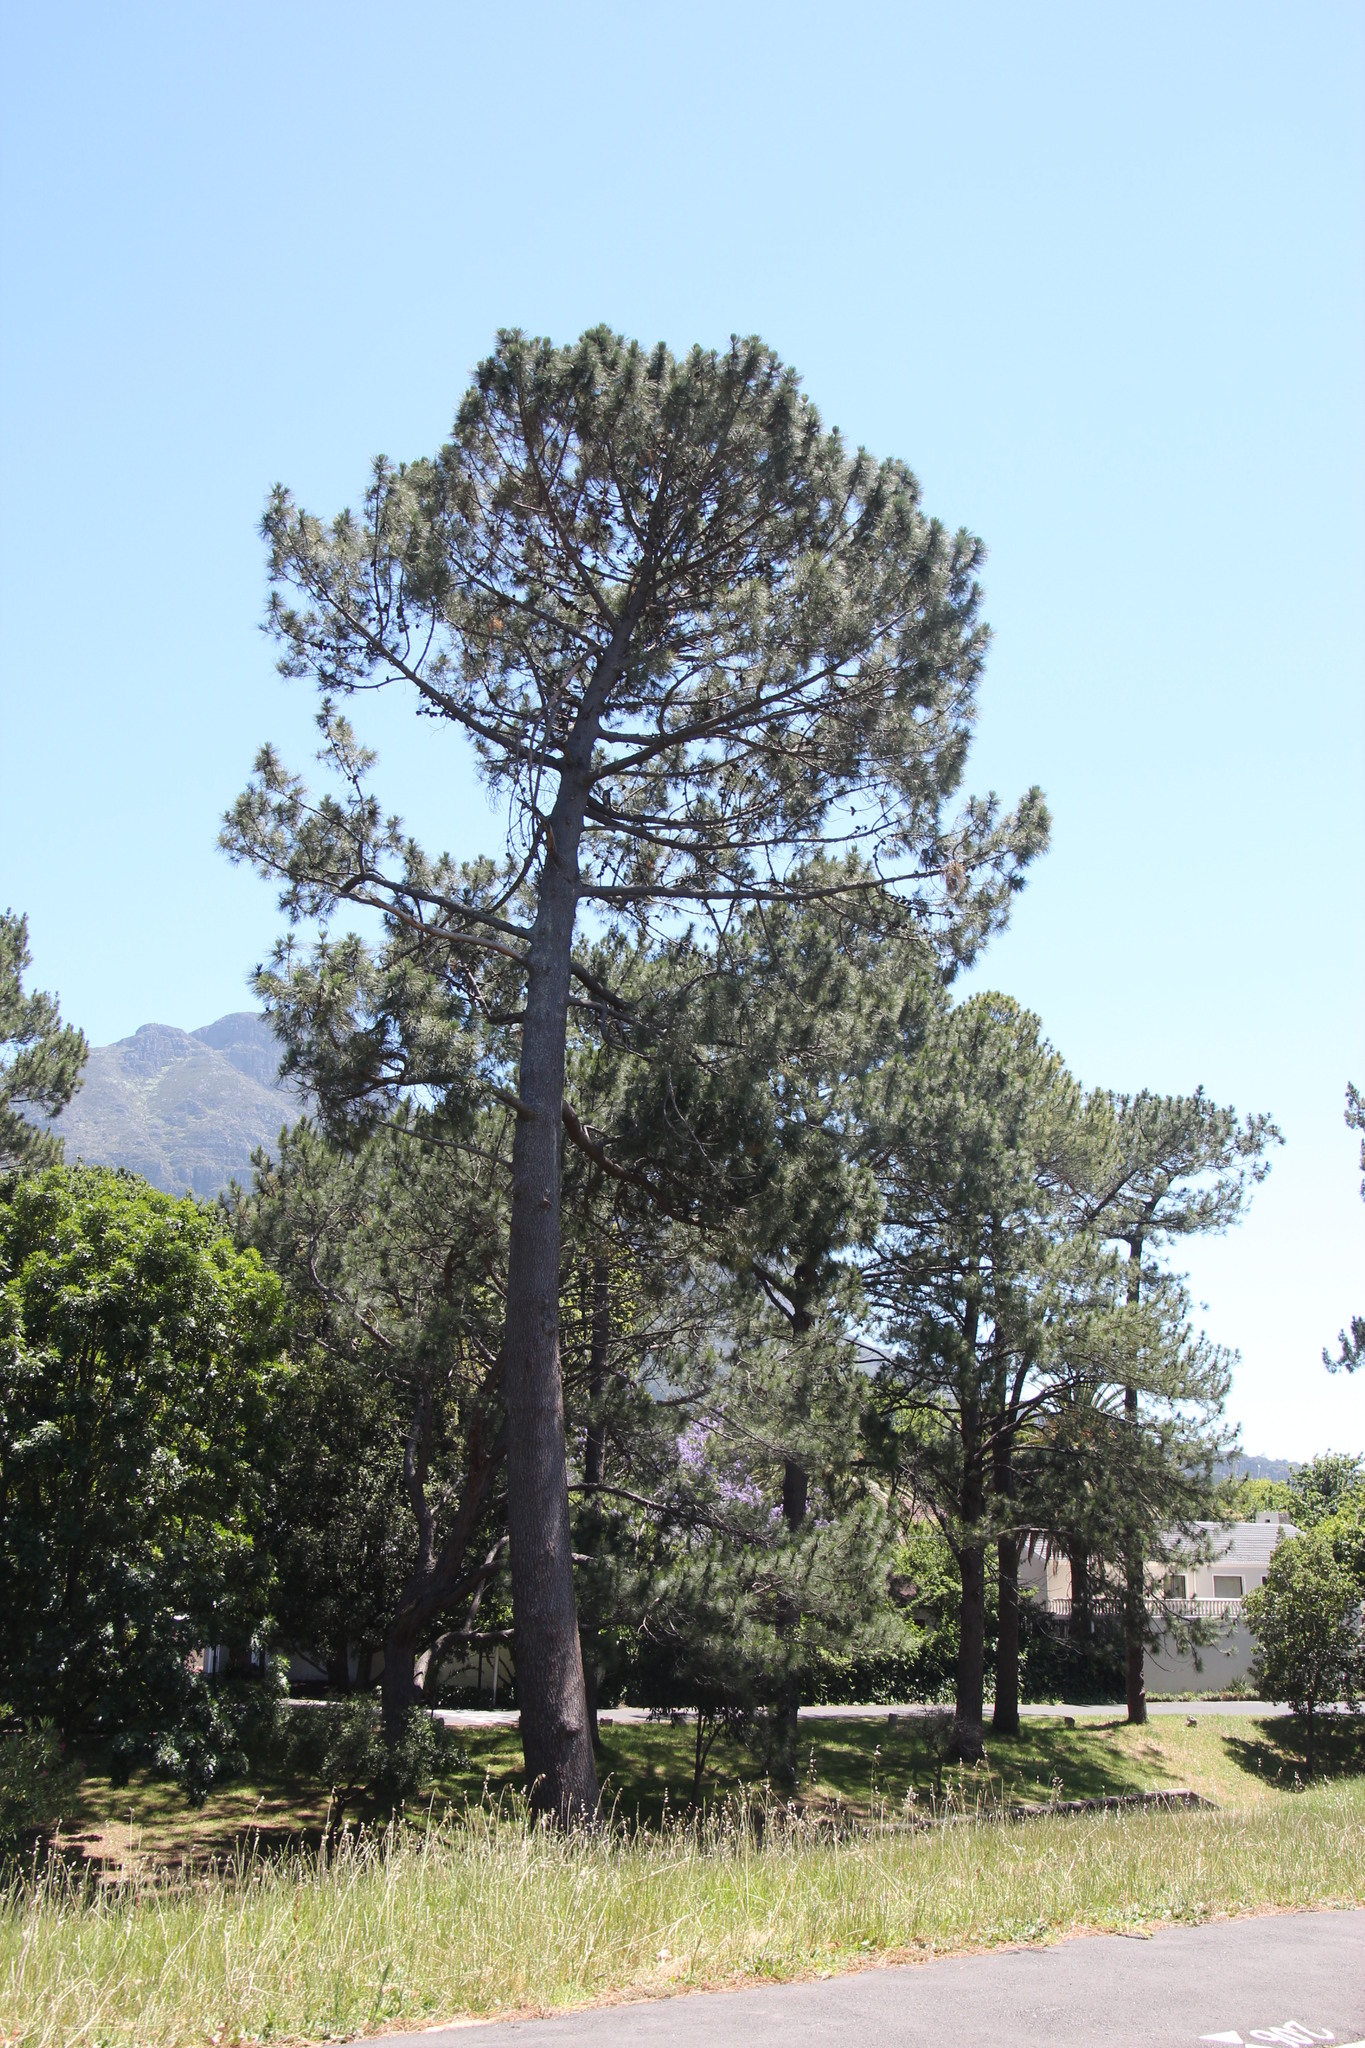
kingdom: Plantae
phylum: Tracheophyta
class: Pinopsida
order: Pinales
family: Pinaceae
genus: Pinus
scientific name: Pinus pinea
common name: Italian stone pine
